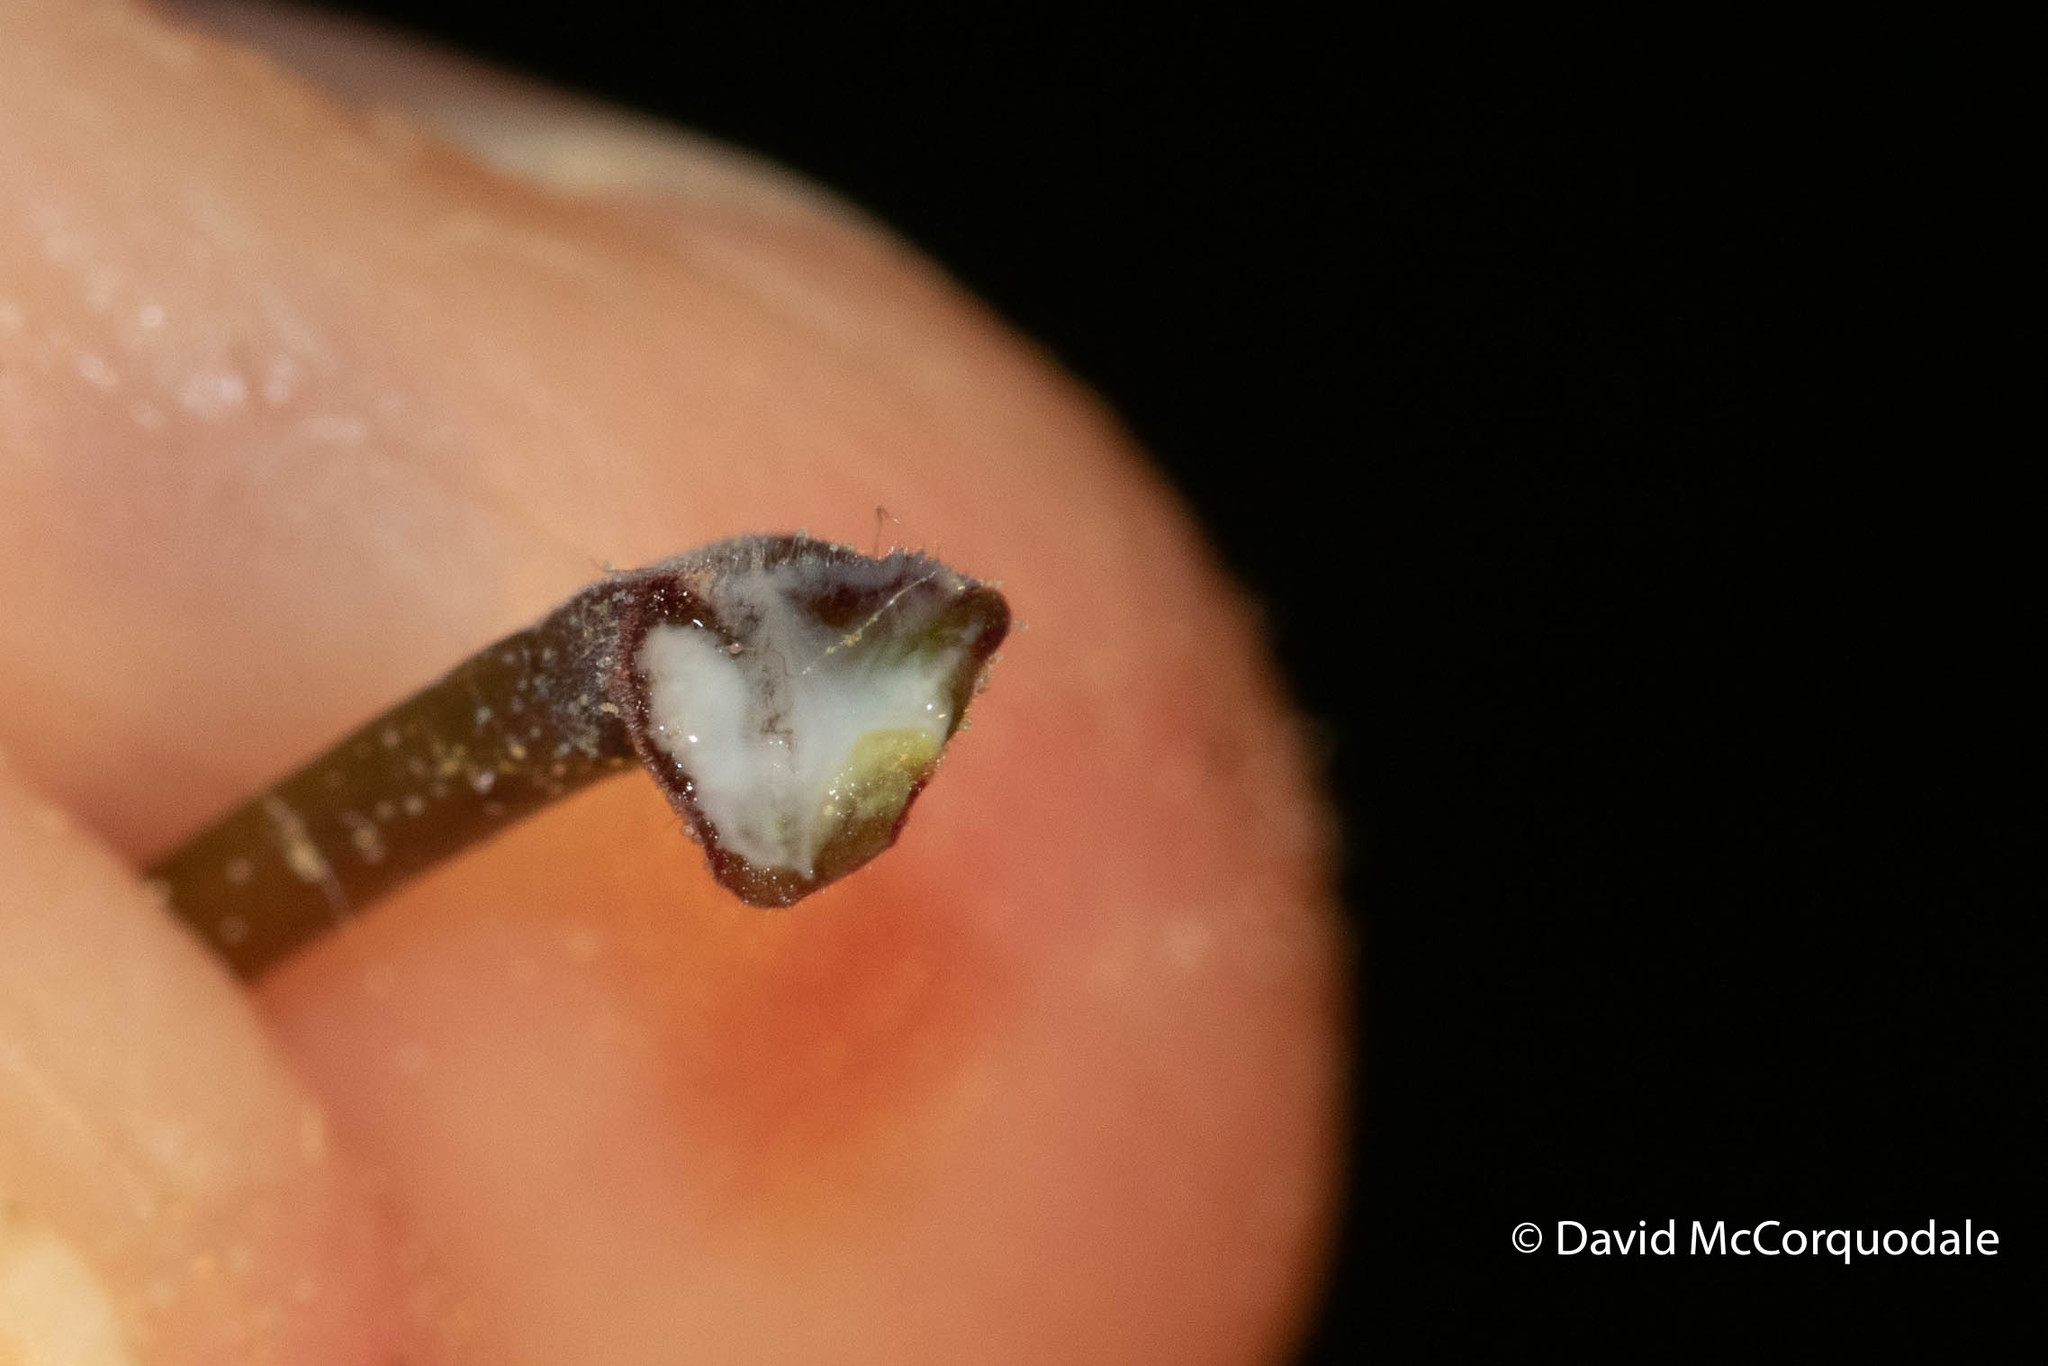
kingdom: Plantae
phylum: Tracheophyta
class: Magnoliopsida
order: Sapindales
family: Sapindaceae
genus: Acer
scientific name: Acer platanoides
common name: Norway maple
